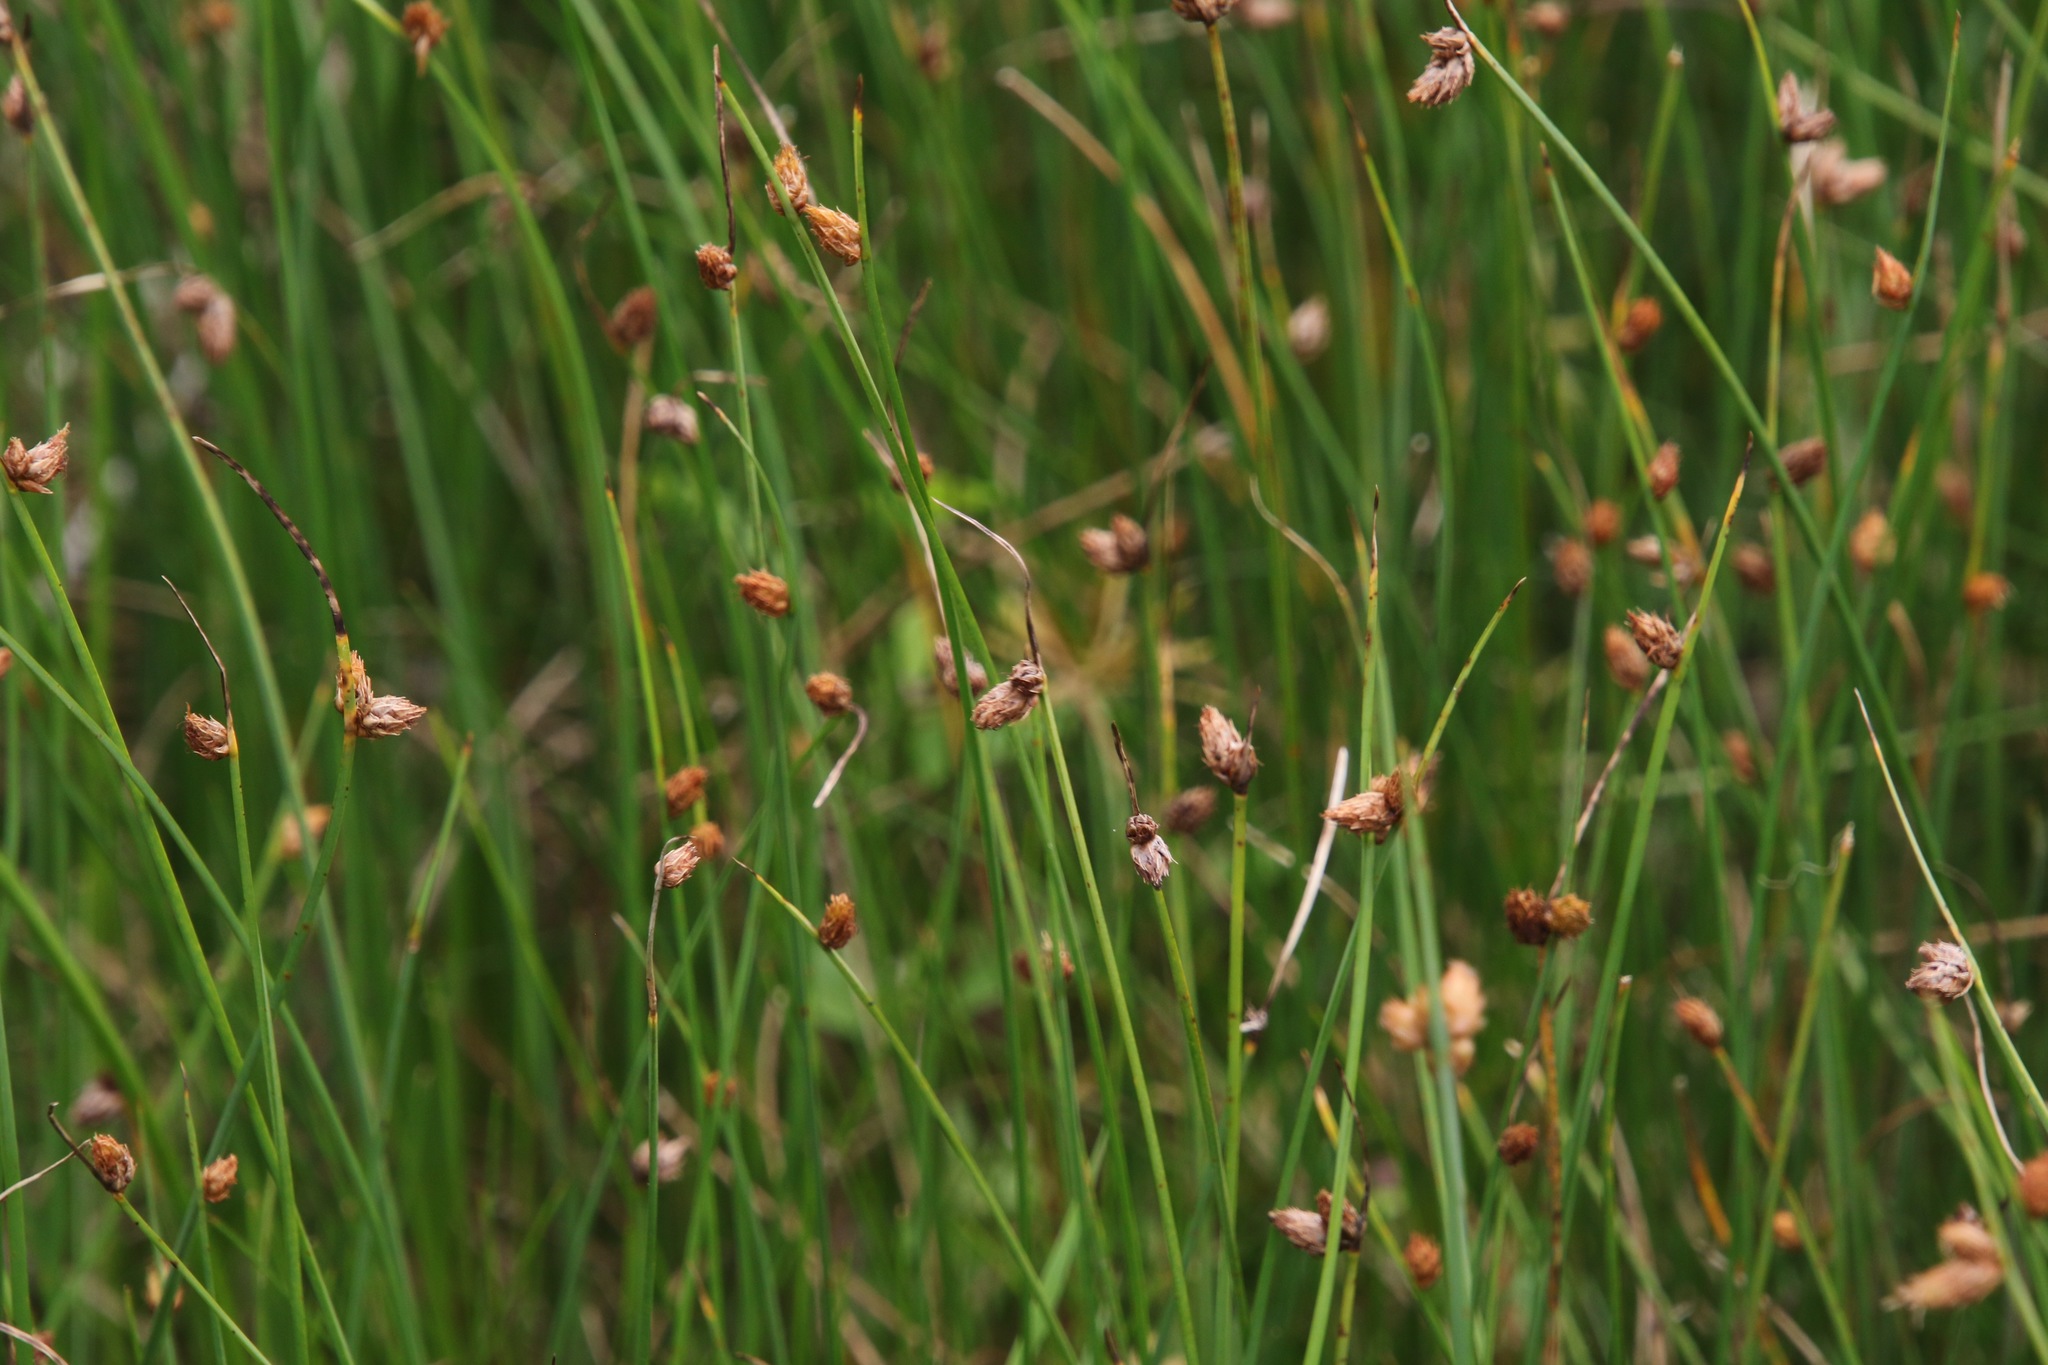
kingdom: Plantae
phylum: Tracheophyta
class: Liliopsida
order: Poales
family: Cyperaceae
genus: Schoenoplectus
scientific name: Schoenoplectus pungens
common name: Sharp club-rush
